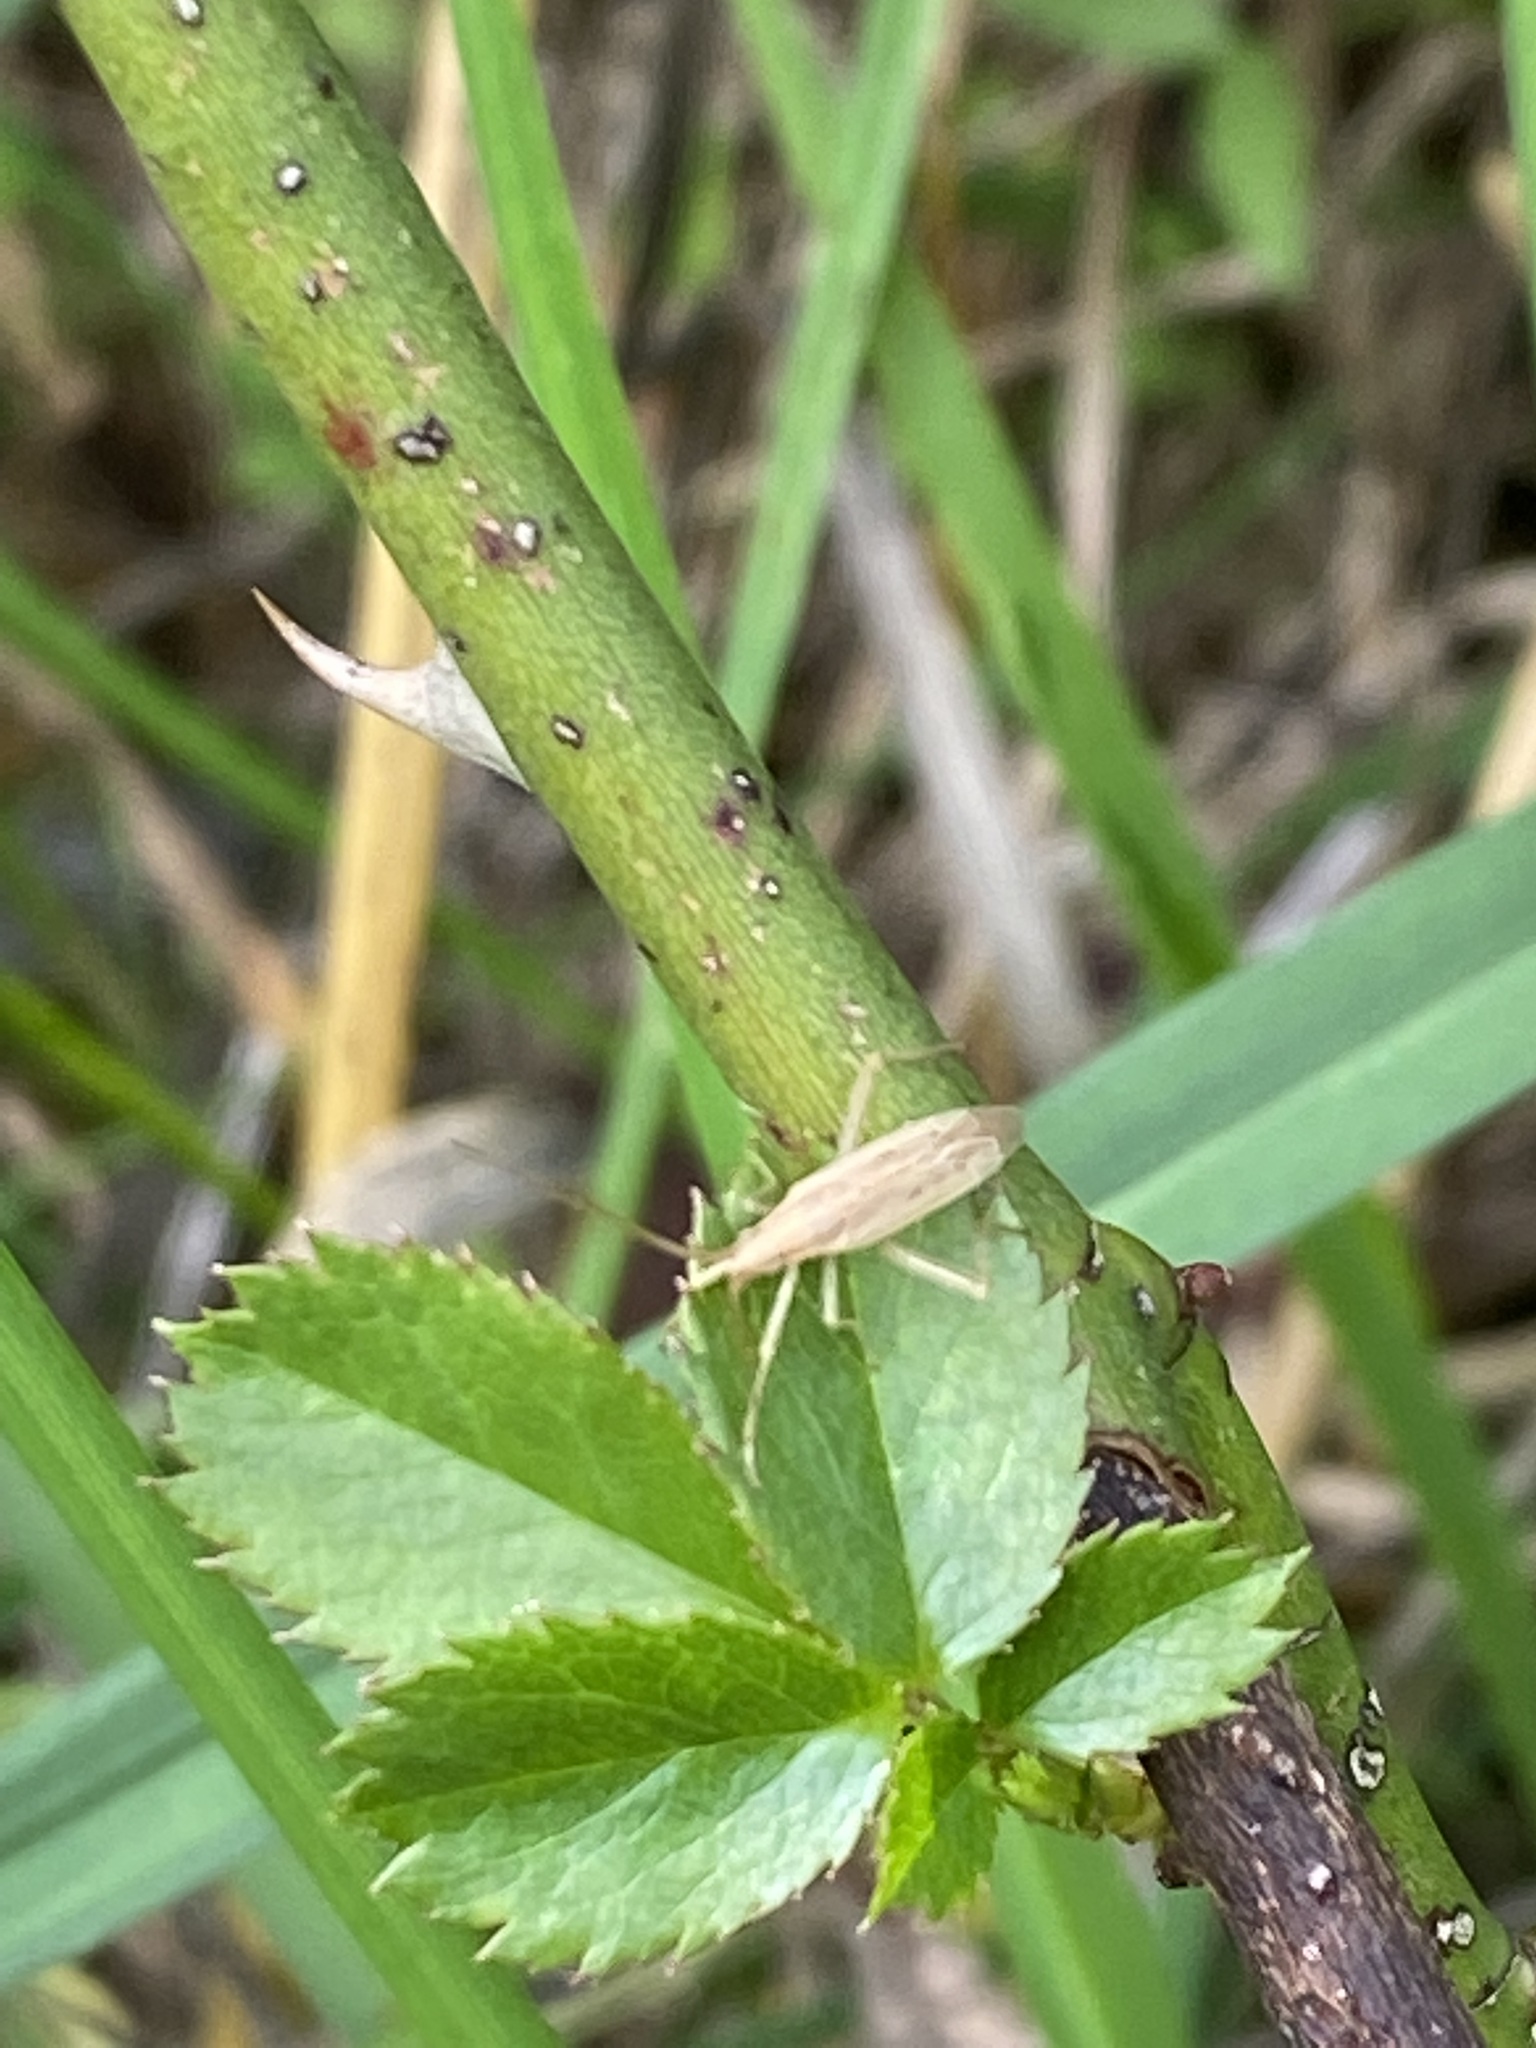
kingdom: Animalia
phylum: Arthropoda
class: Insecta
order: Hemiptera
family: Miridae
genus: Stenodema
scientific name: Stenodema laevigata
